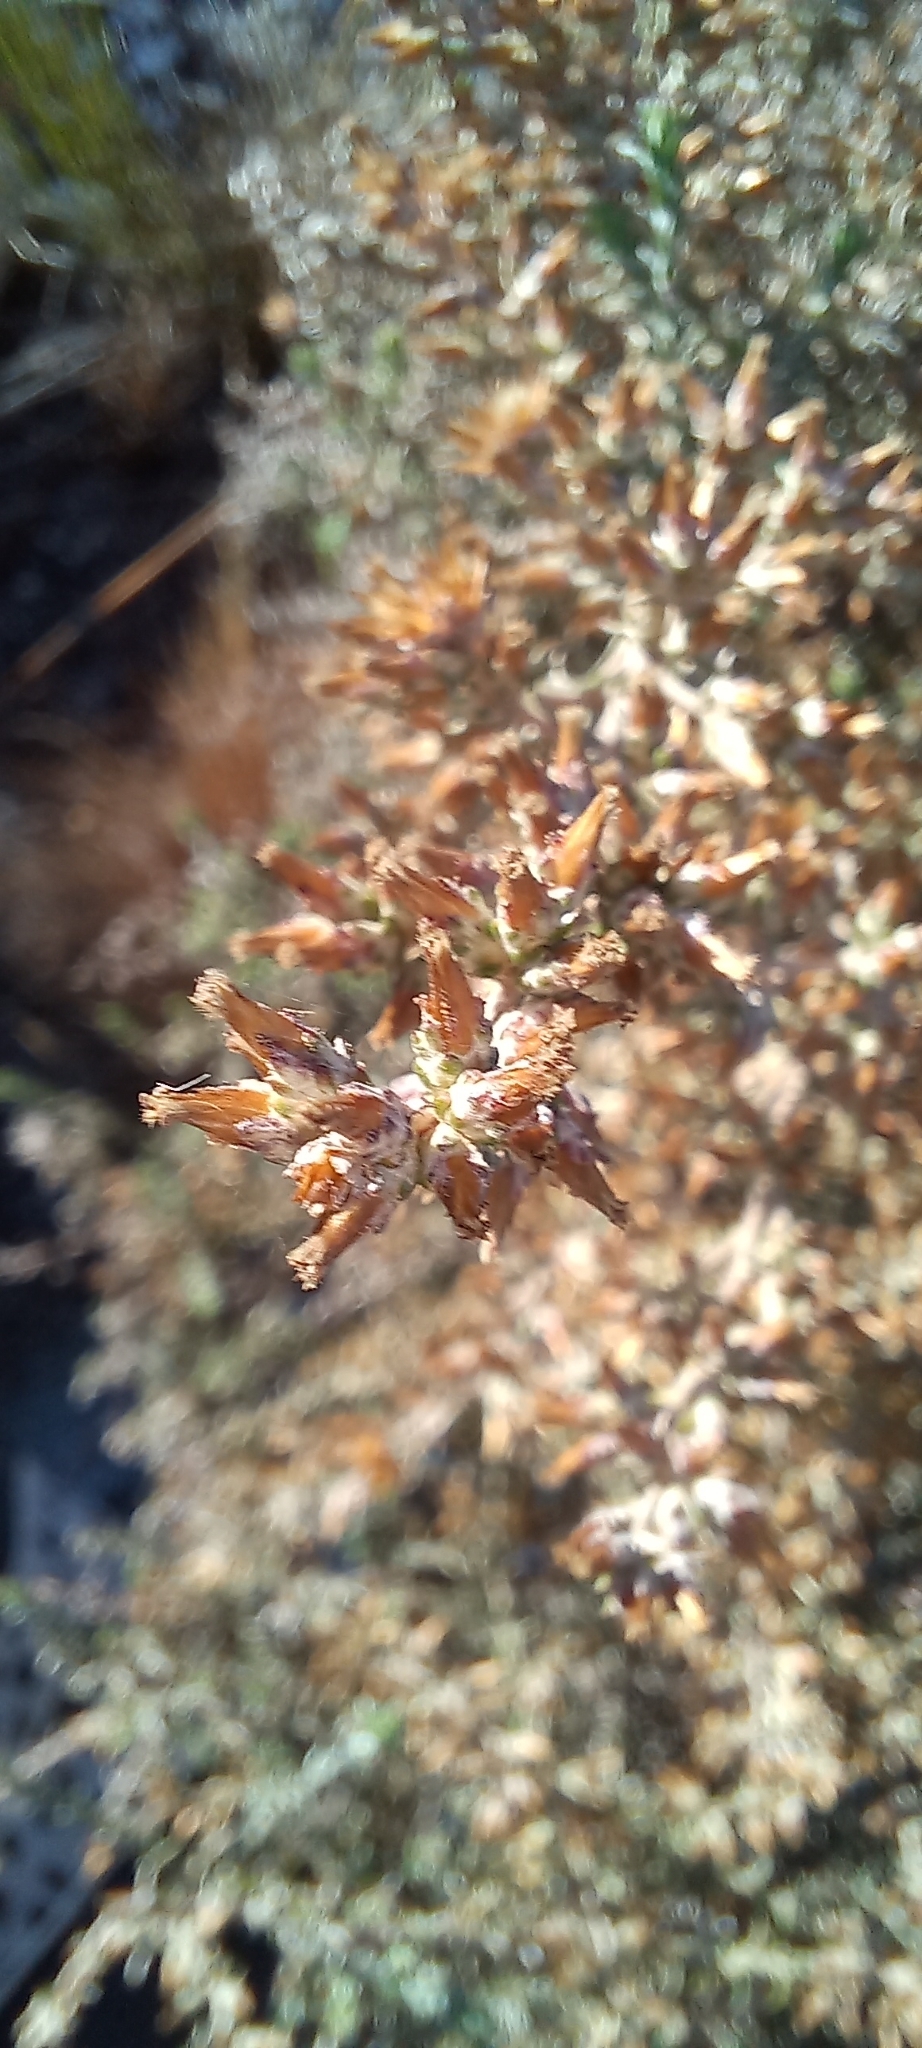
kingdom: Plantae
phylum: Tracheophyta
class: Magnoliopsida
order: Asterales
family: Asteraceae
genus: Dicerothamnus
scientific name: Dicerothamnus rhinocerotis
